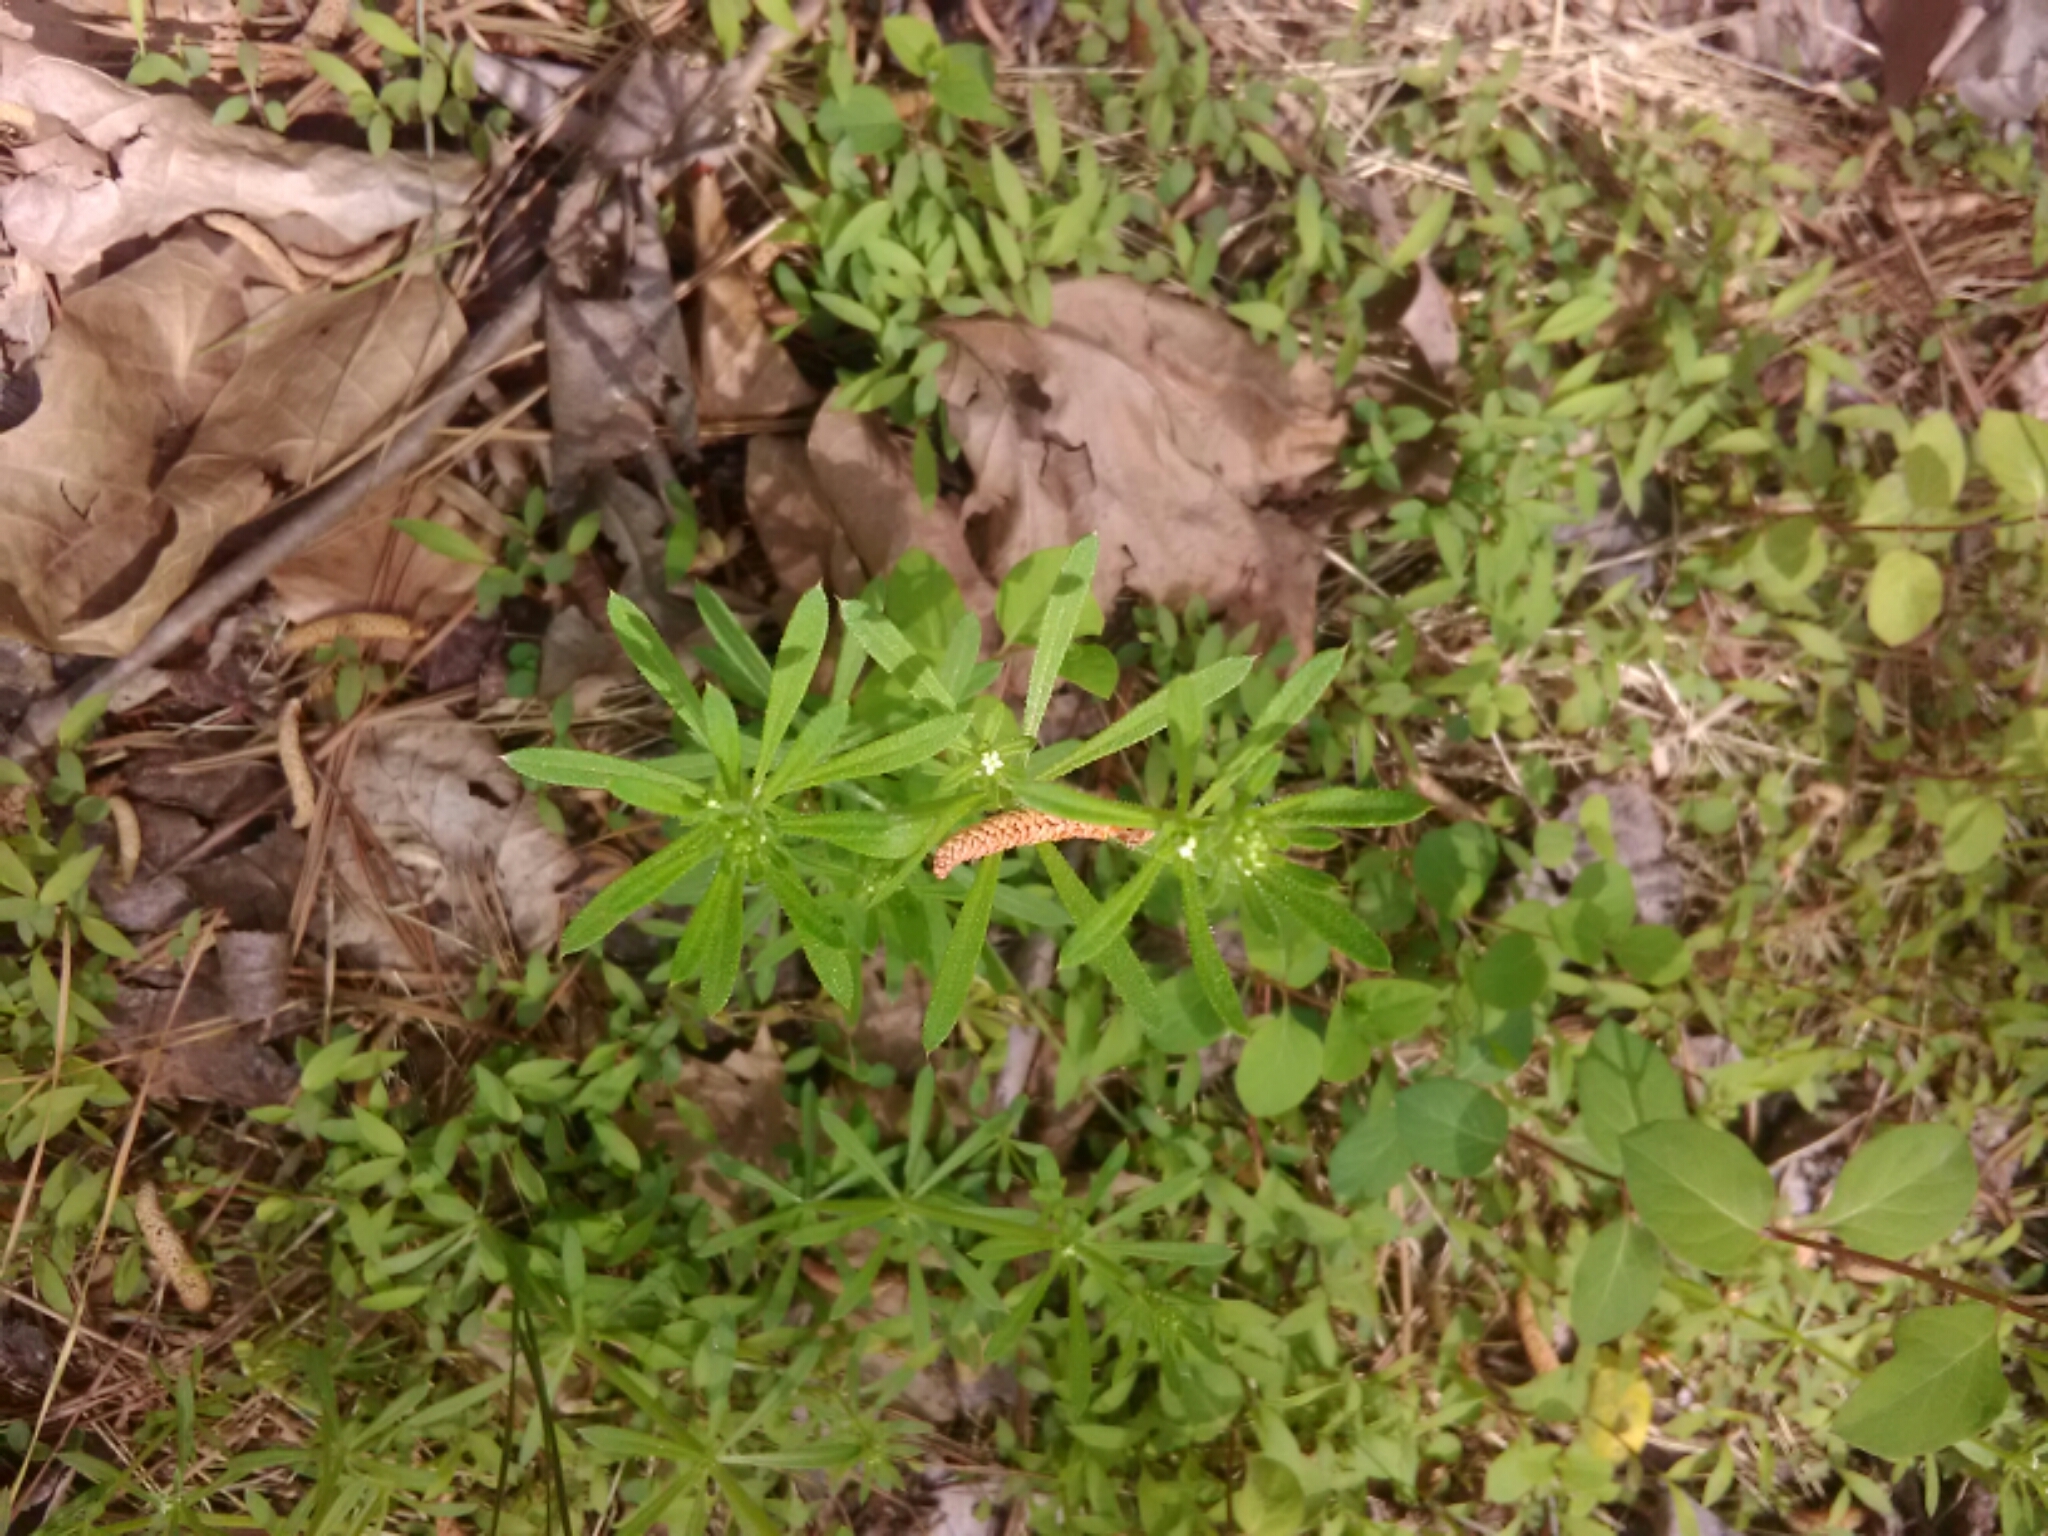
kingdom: Plantae
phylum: Tracheophyta
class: Magnoliopsida
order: Gentianales
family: Rubiaceae
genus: Galium
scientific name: Galium aparine
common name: Cleavers
